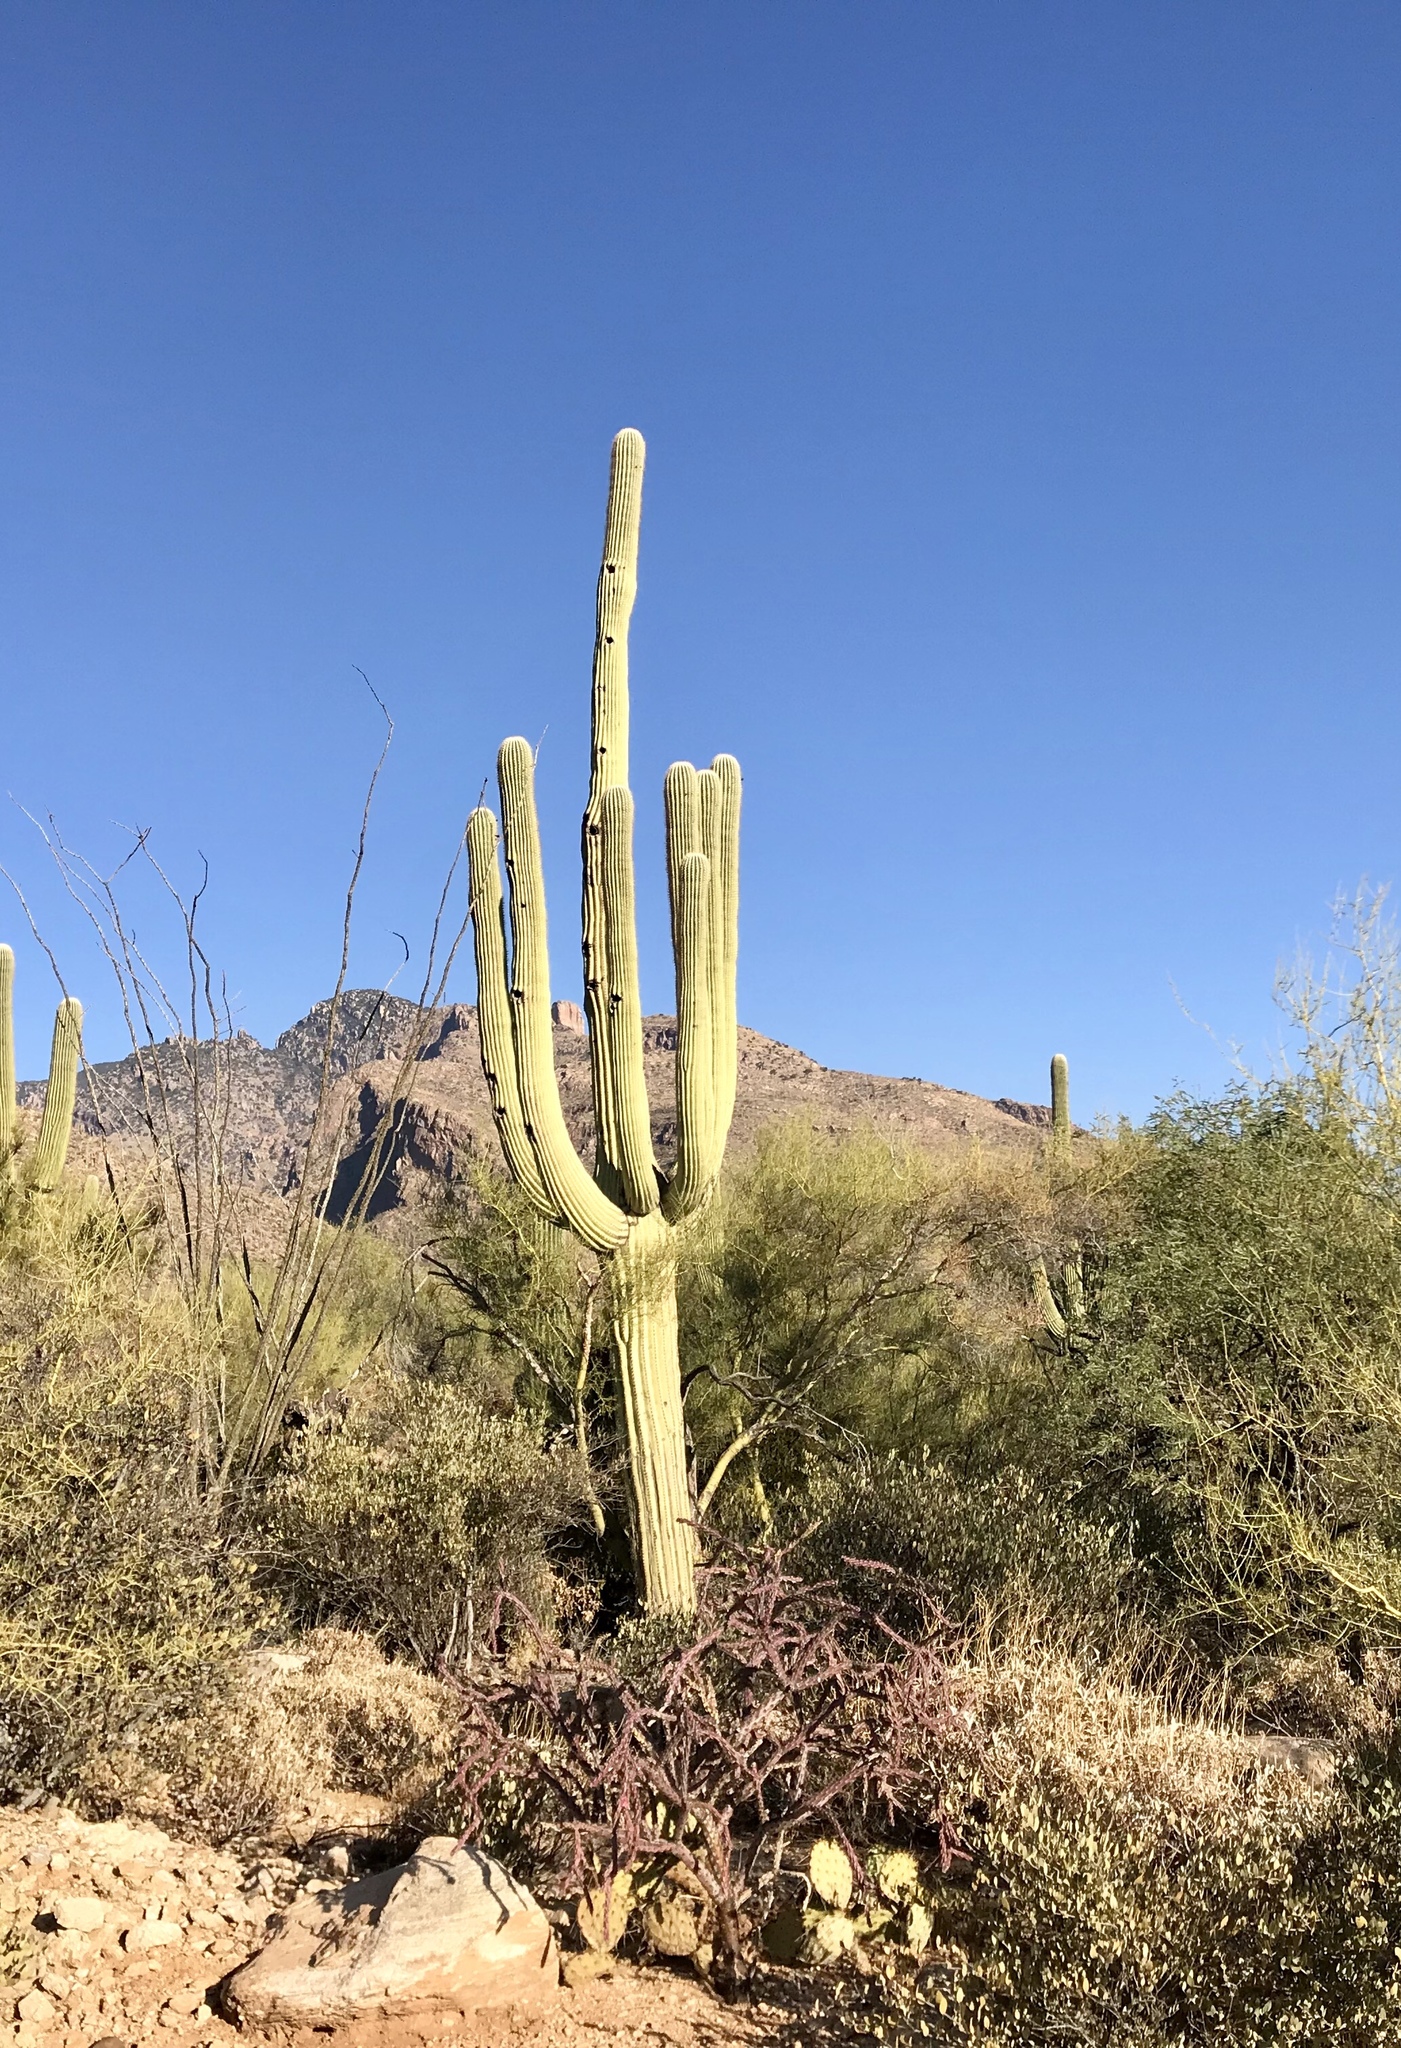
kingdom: Plantae
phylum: Tracheophyta
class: Magnoliopsida
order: Caryophyllales
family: Cactaceae
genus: Carnegiea
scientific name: Carnegiea gigantea
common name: Saguaro
